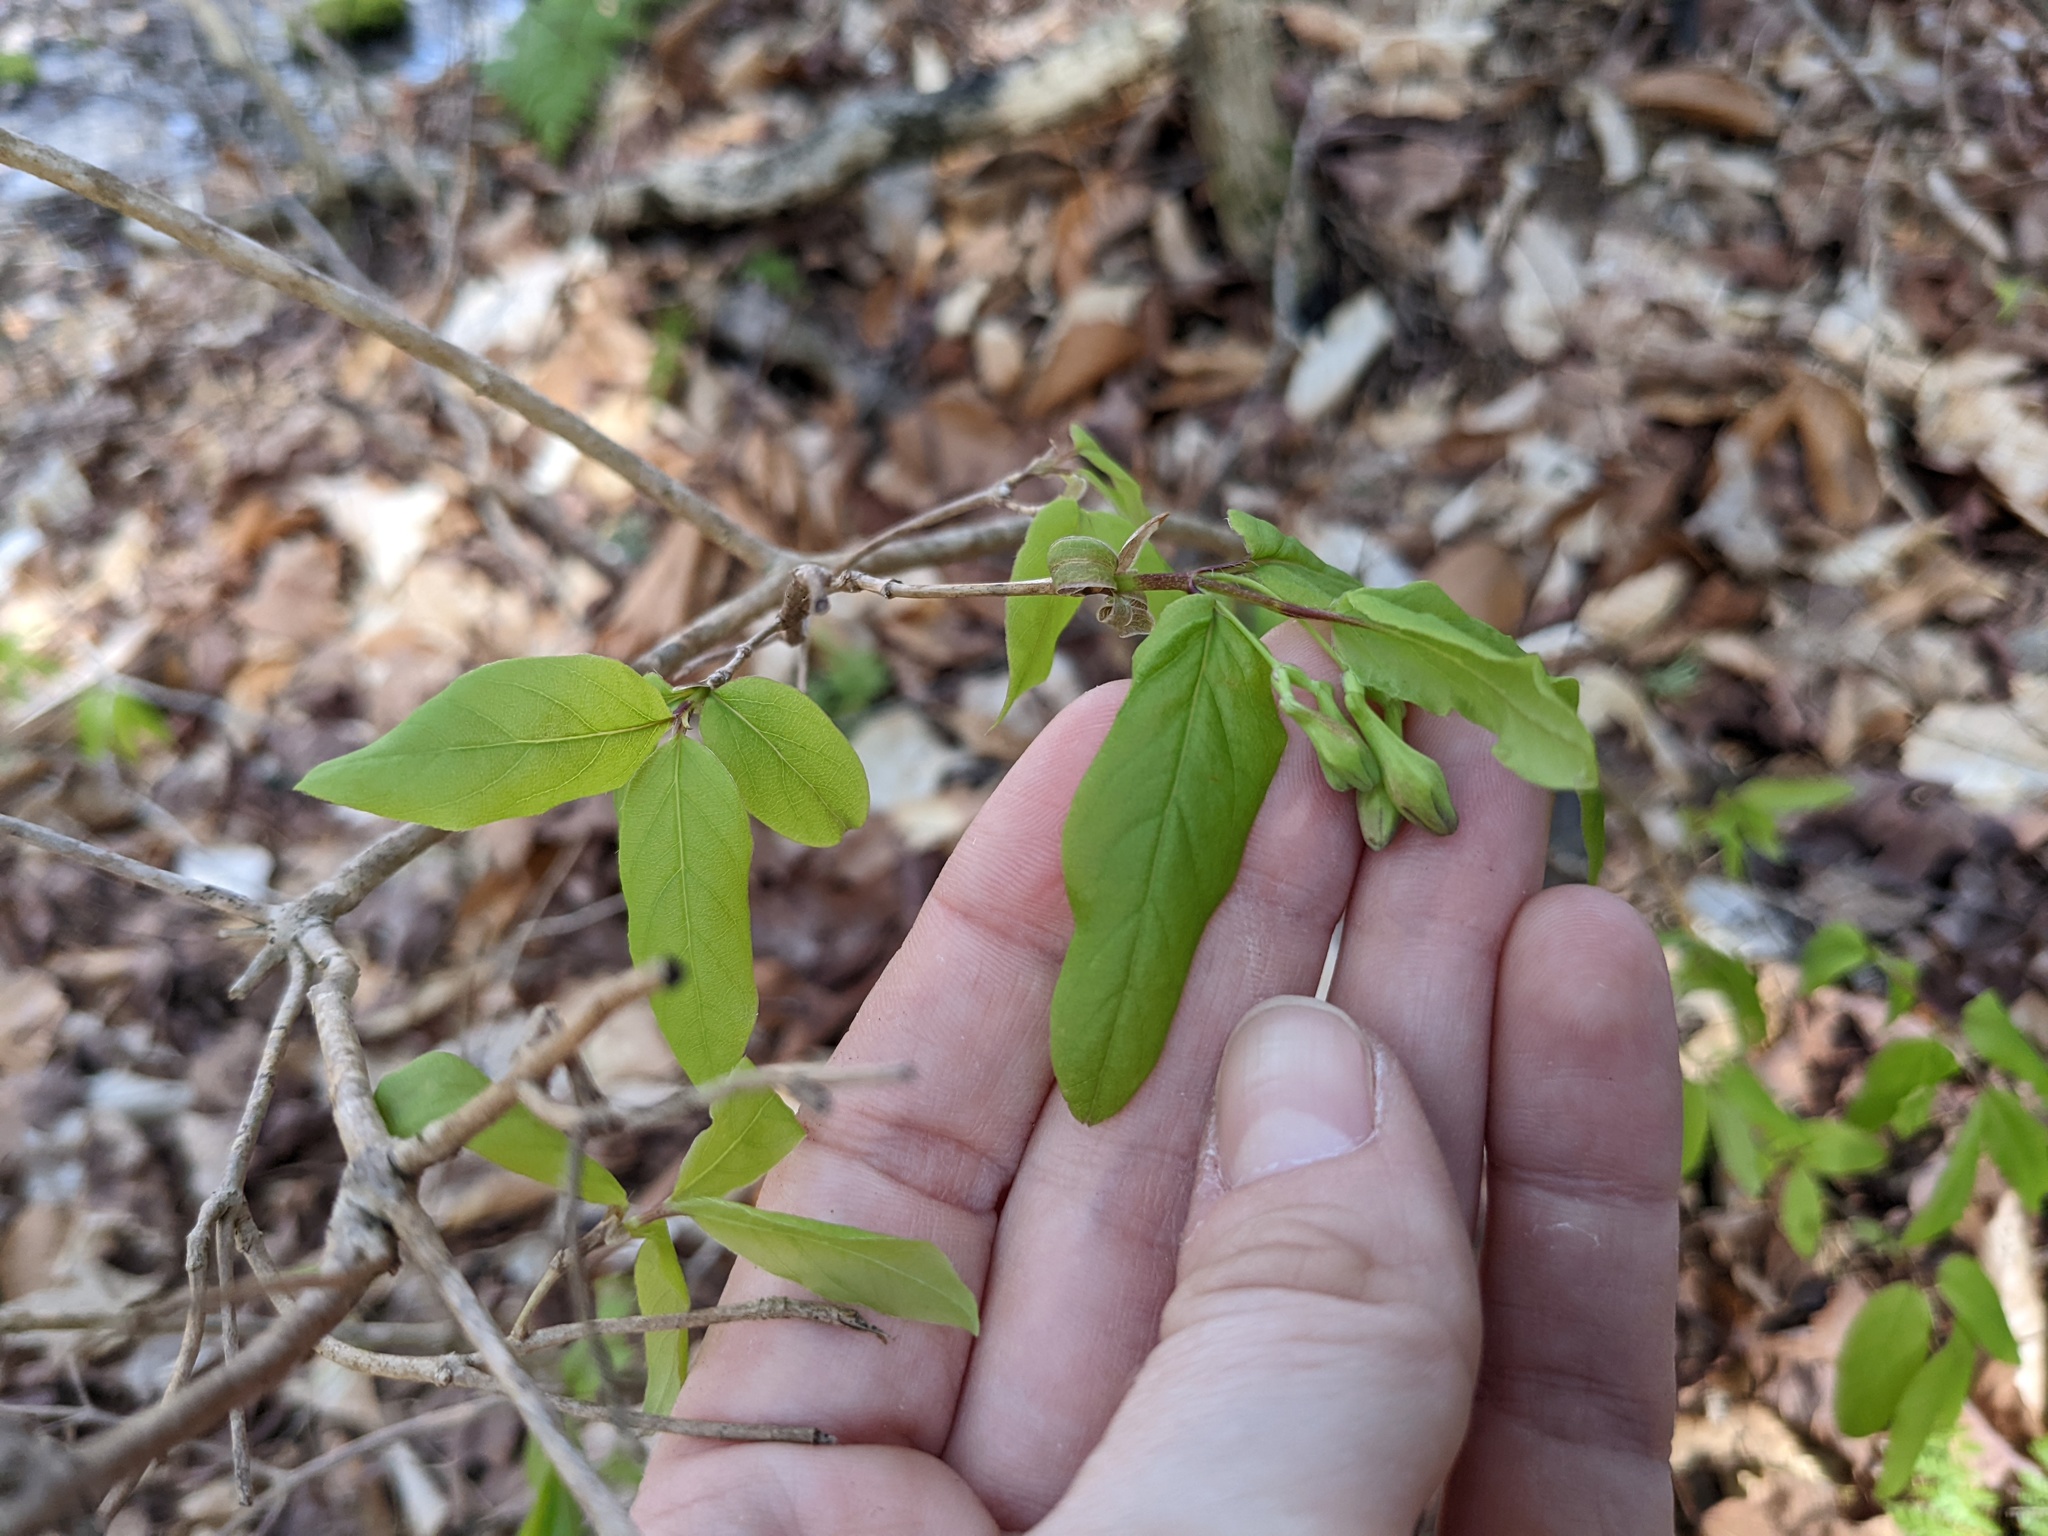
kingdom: Plantae
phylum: Tracheophyta
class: Magnoliopsida
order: Dipsacales
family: Caprifoliaceae
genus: Lonicera
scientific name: Lonicera canadensis
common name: American fly-honeysuckle
